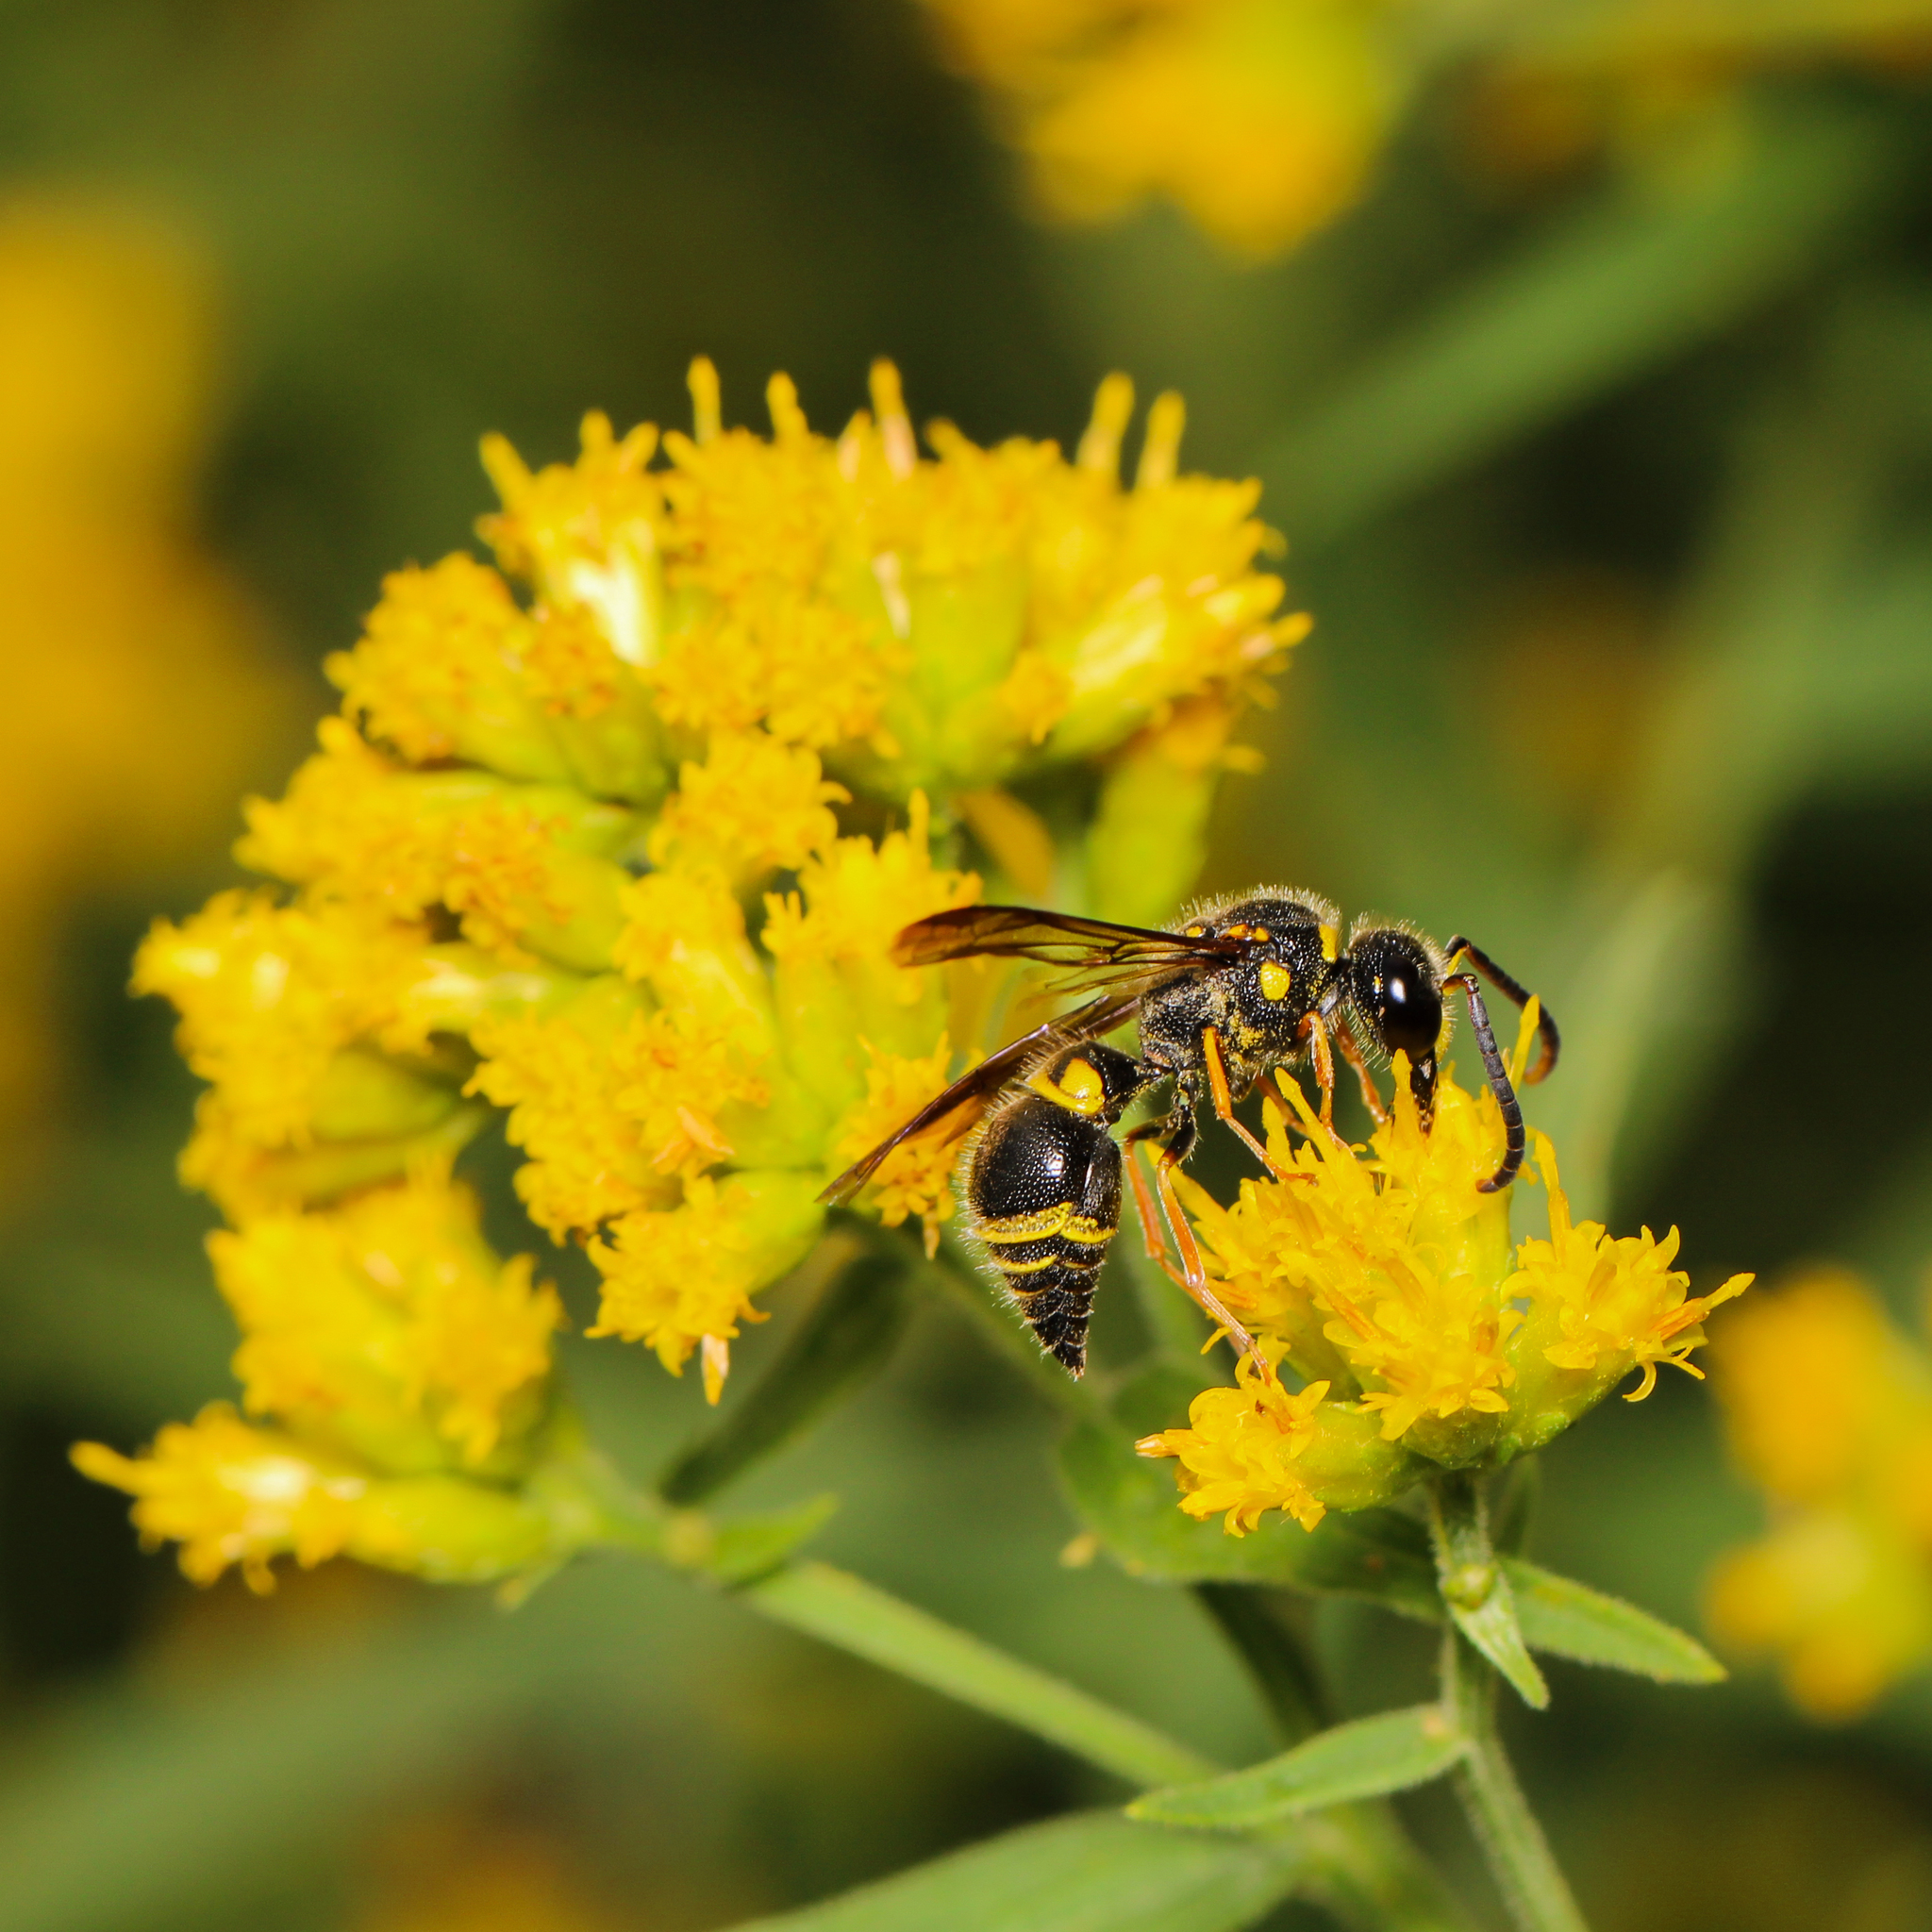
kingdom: Animalia
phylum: Arthropoda
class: Insecta
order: Hymenoptera
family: Vespidae
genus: Ancistrocerus
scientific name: Ancistrocerus campestris
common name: Smiling mason wasp
